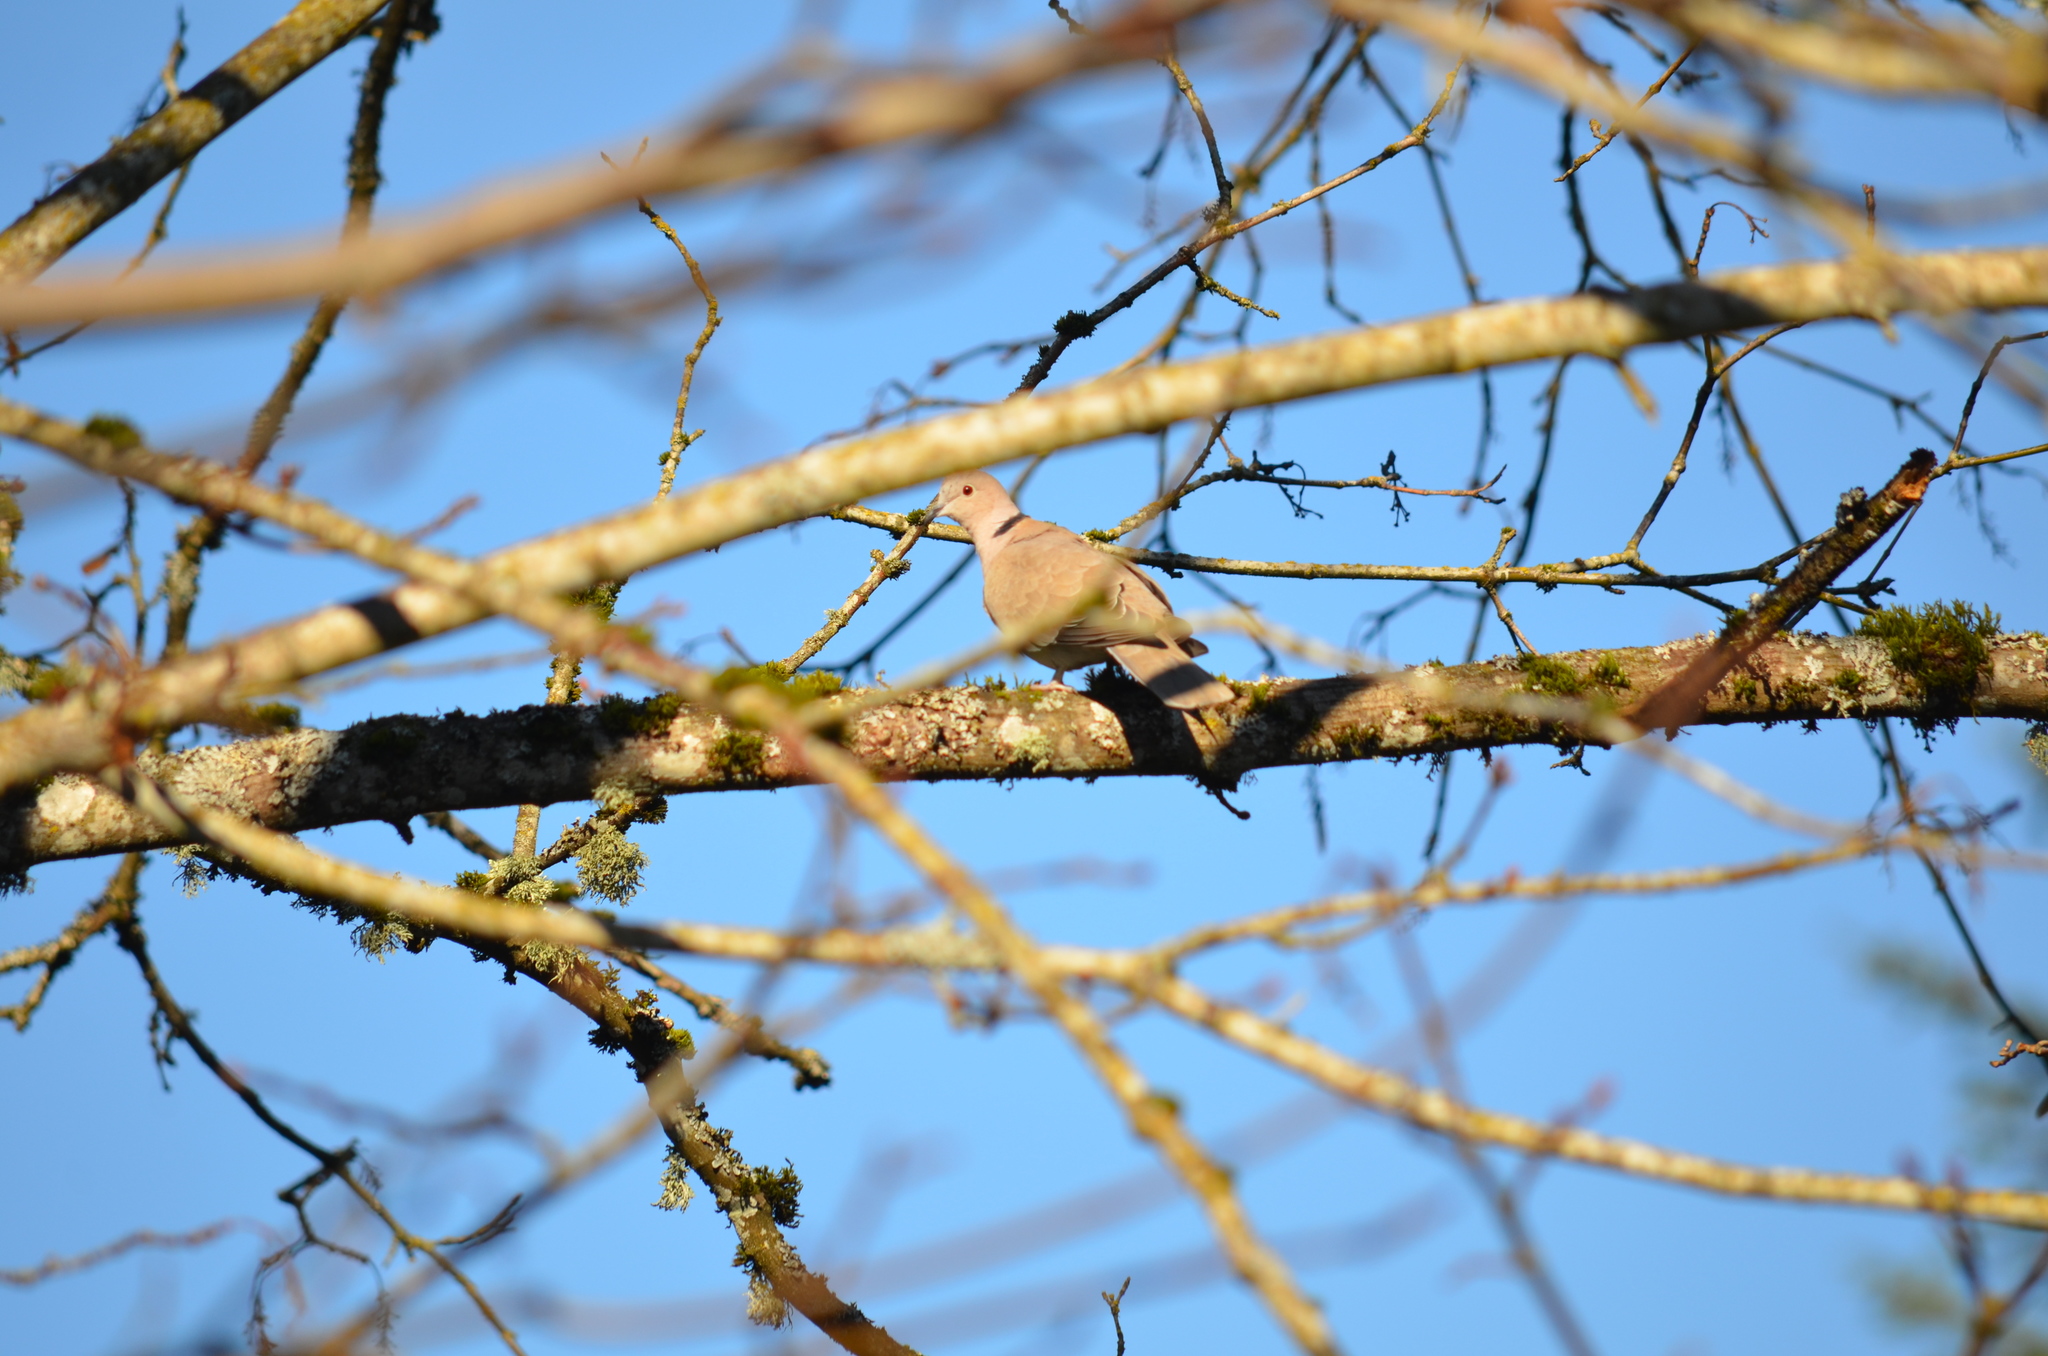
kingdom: Animalia
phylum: Chordata
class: Aves
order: Columbiformes
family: Columbidae
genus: Streptopelia
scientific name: Streptopelia decaocto
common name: Eurasian collared dove
